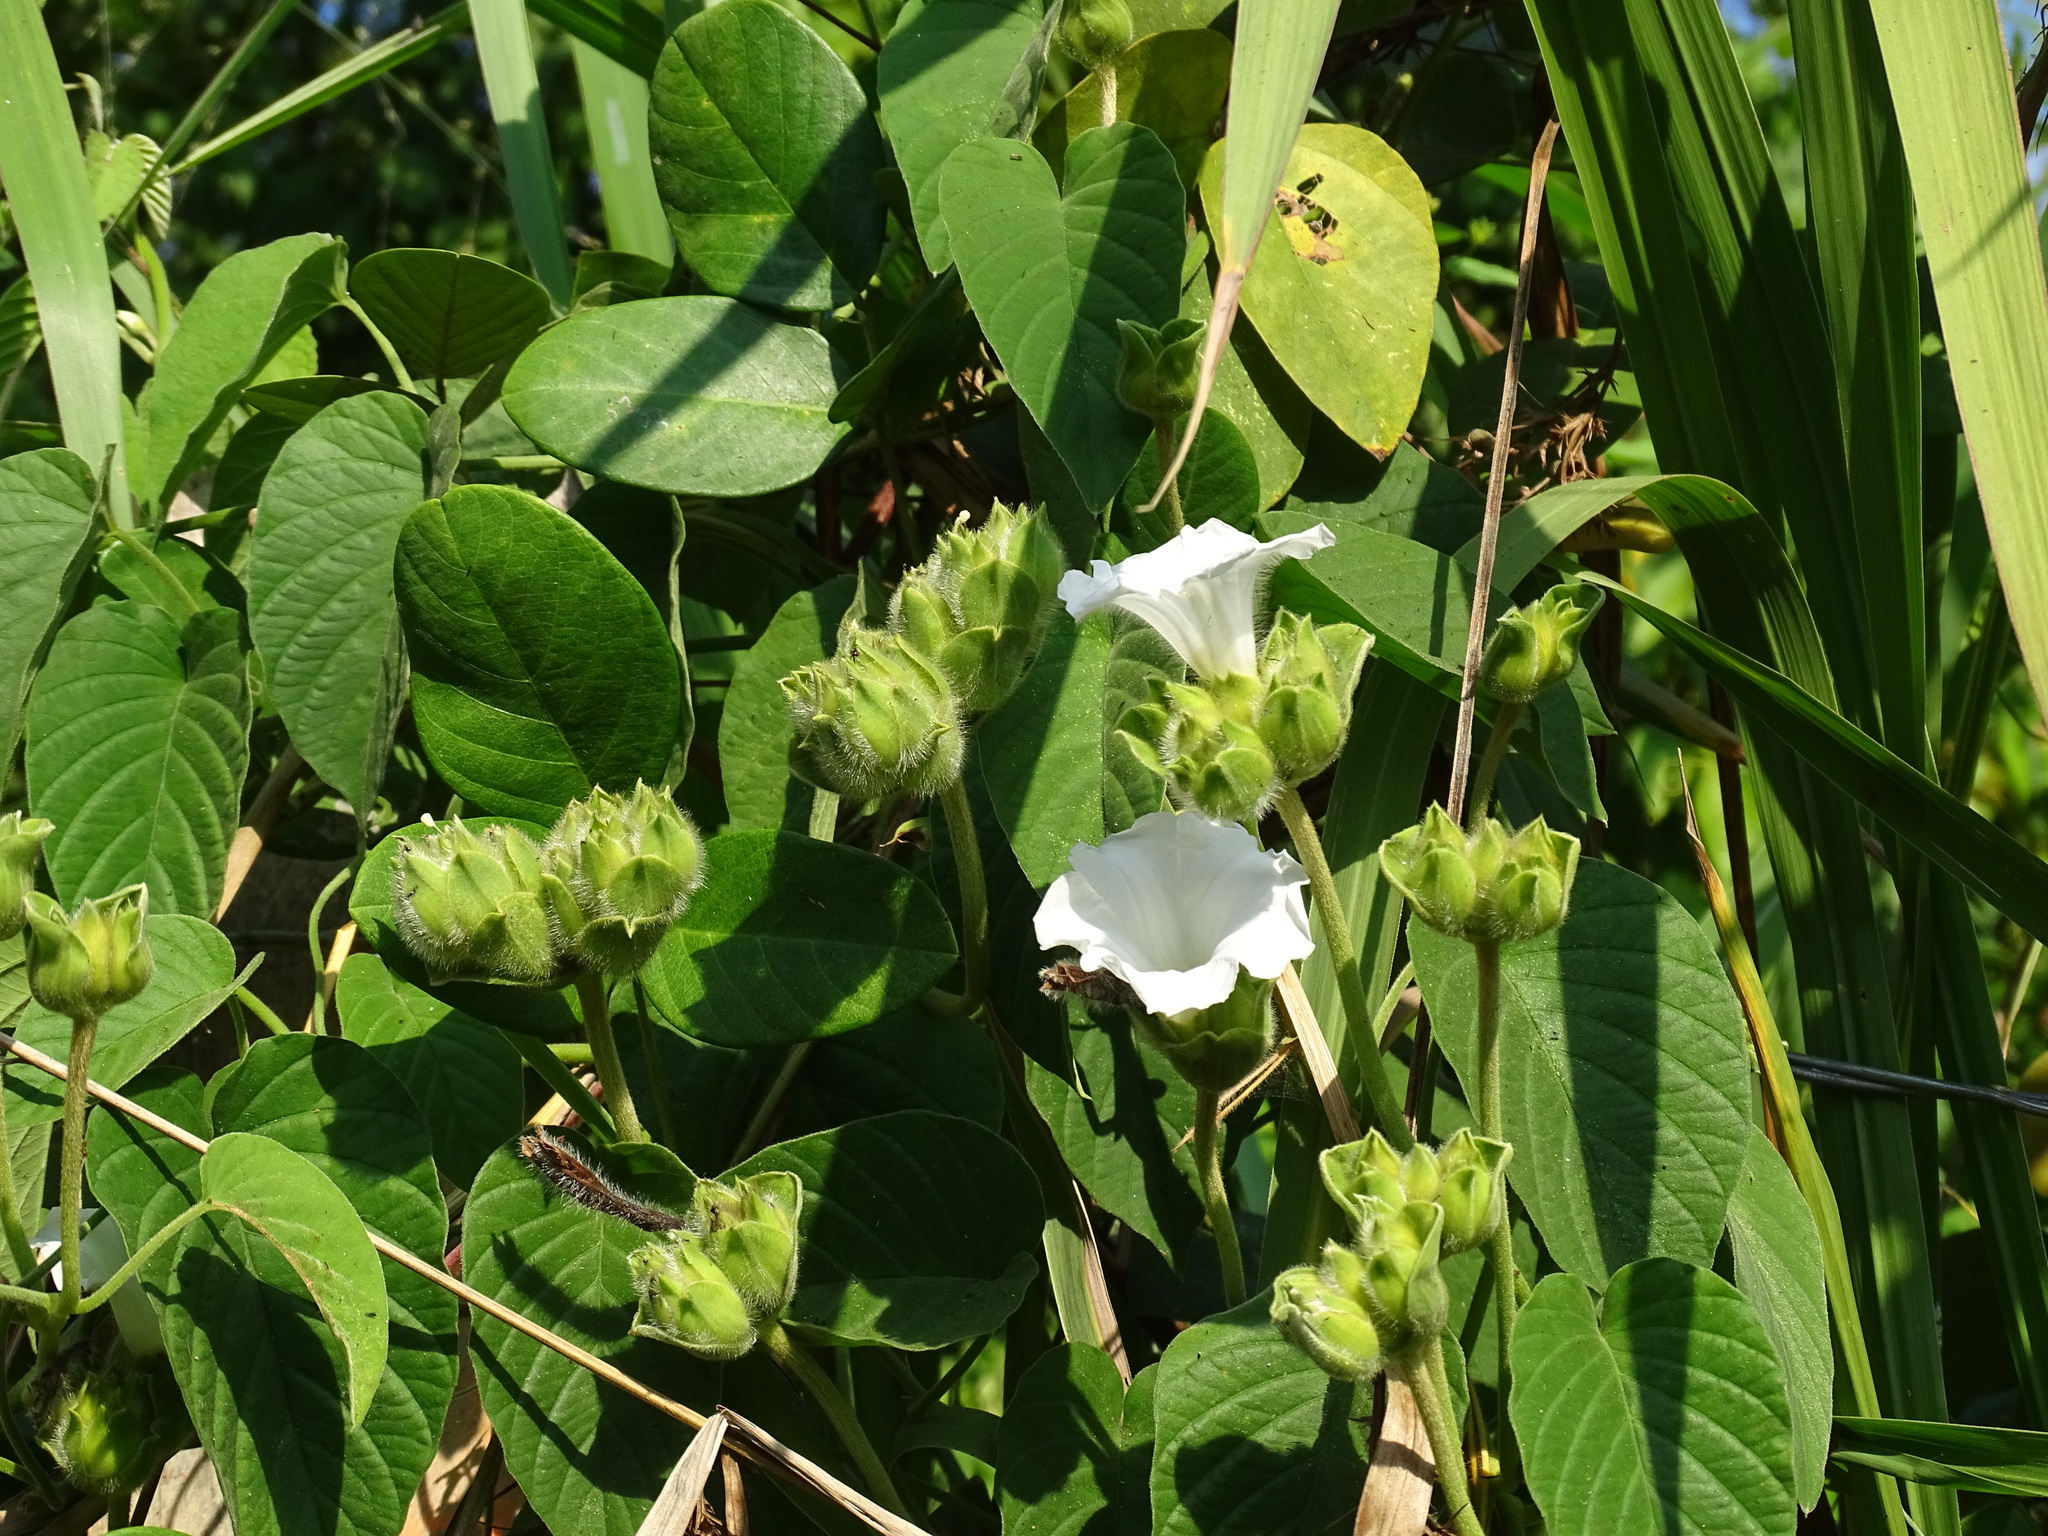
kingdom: Plantae
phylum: Tracheophyta
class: Magnoliopsida
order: Solanales
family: Convolvulaceae
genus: Jacquemontia
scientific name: Jacquemontia oaxacana
